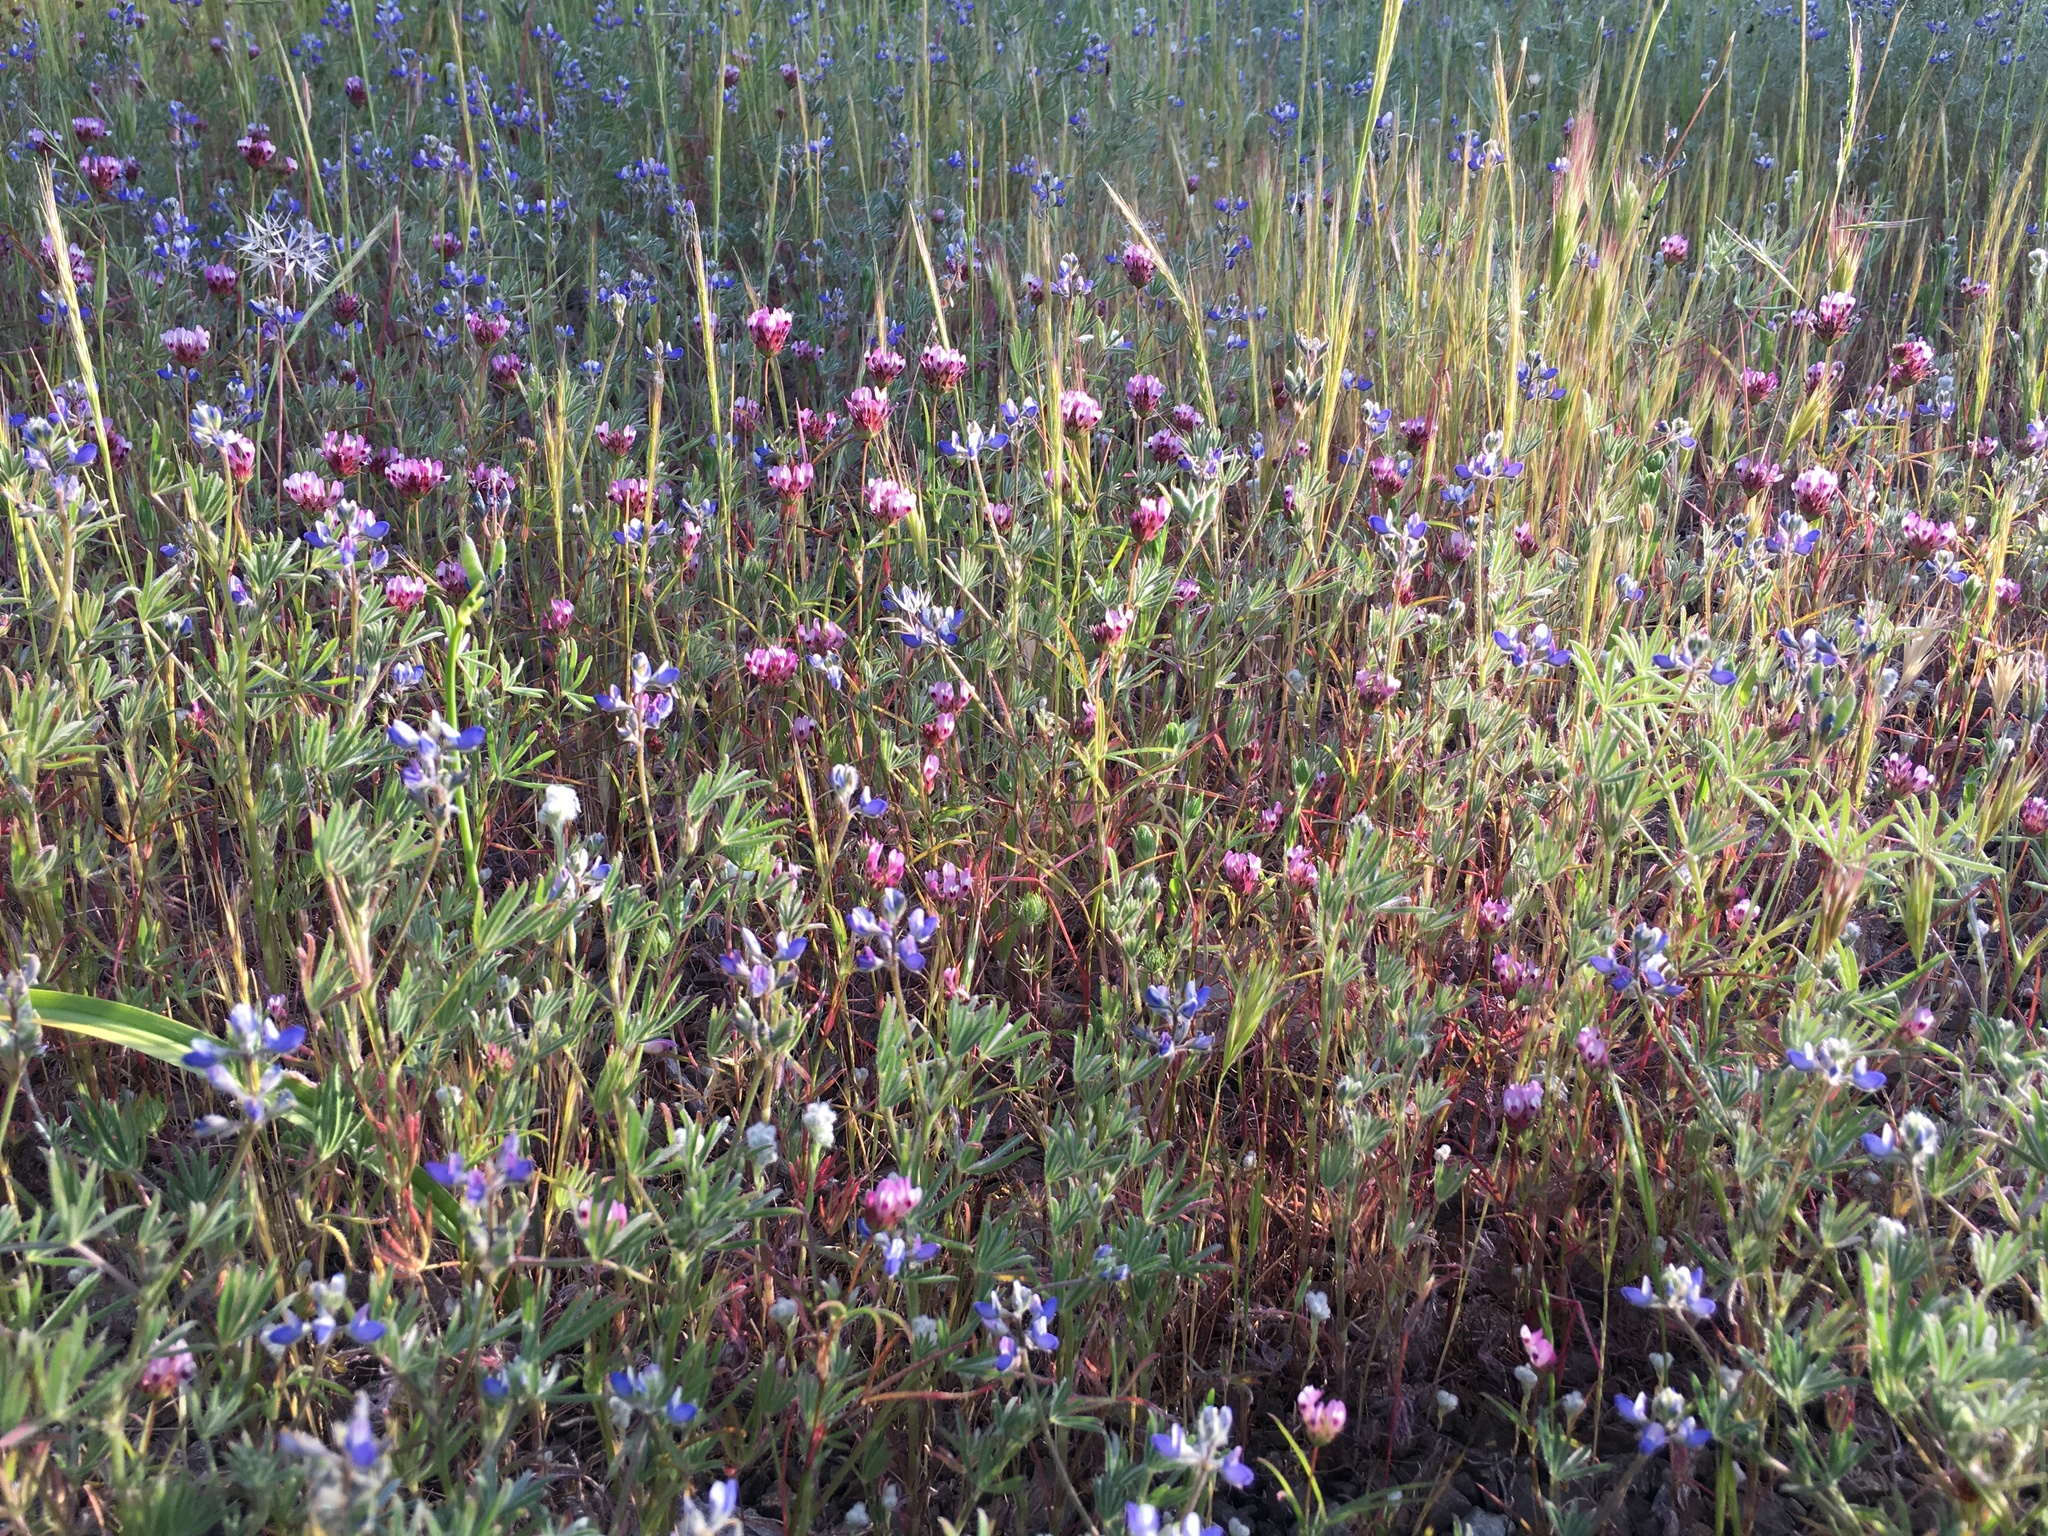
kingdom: Plantae
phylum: Tracheophyta
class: Liliopsida
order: Poales
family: Poaceae
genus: Festuca
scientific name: Festuca myuros
